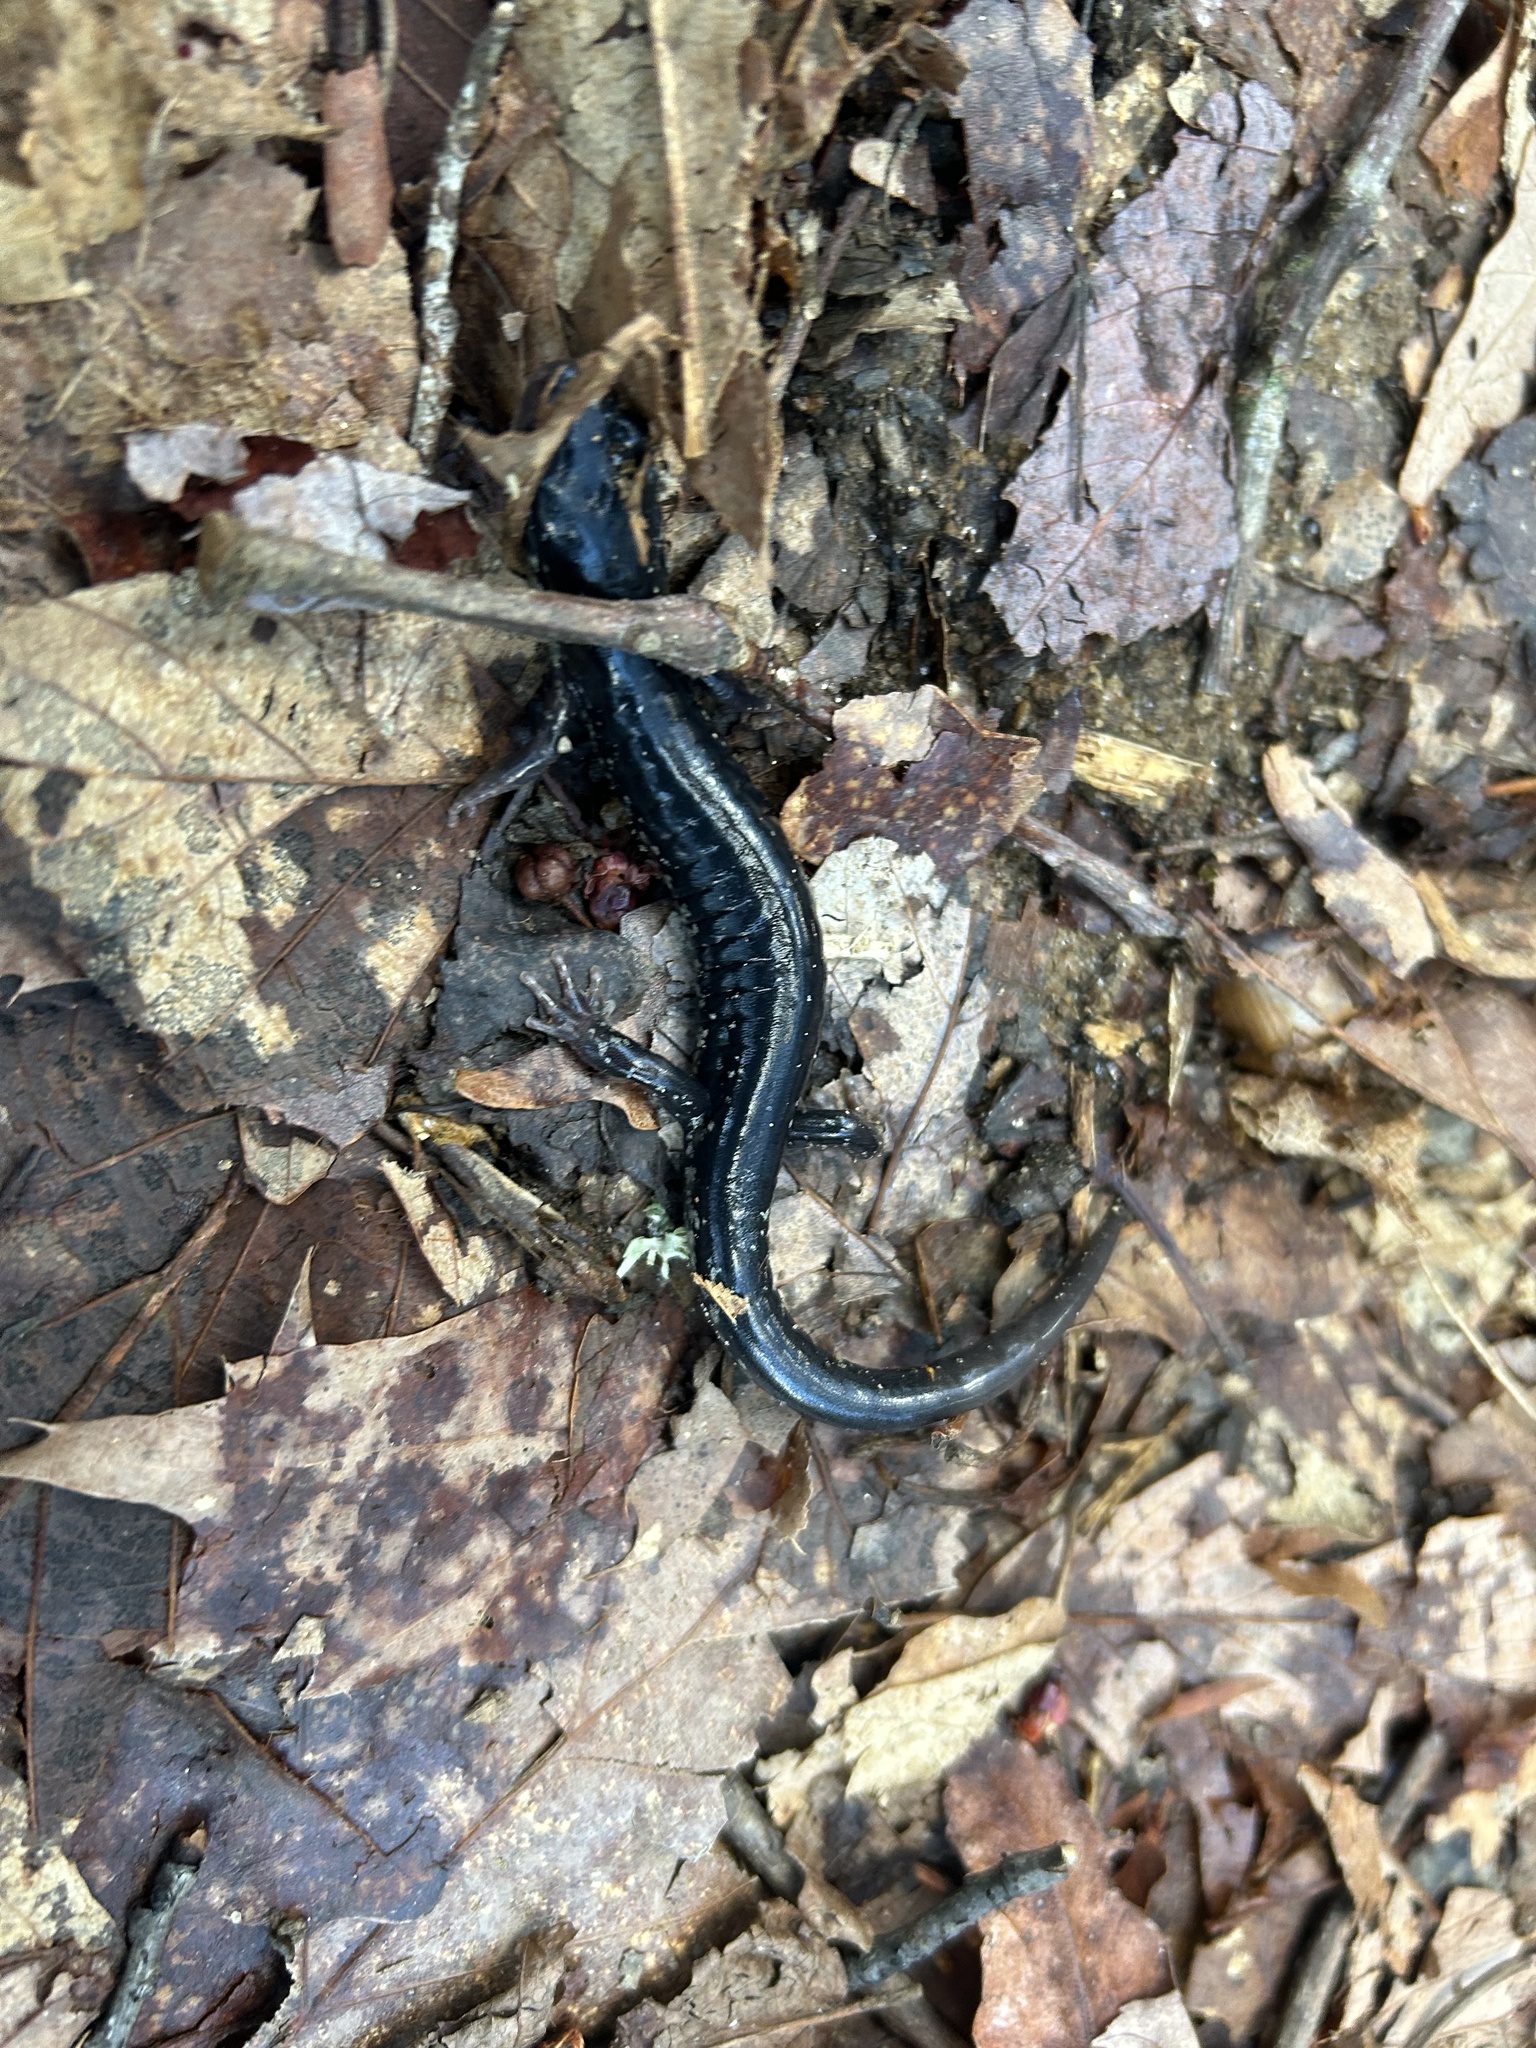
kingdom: Animalia
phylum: Chordata
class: Amphibia
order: Caudata
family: Plethodontidae
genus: Plethodon
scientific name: Plethodon cylindraceus
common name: White-spotted slimy salamander
